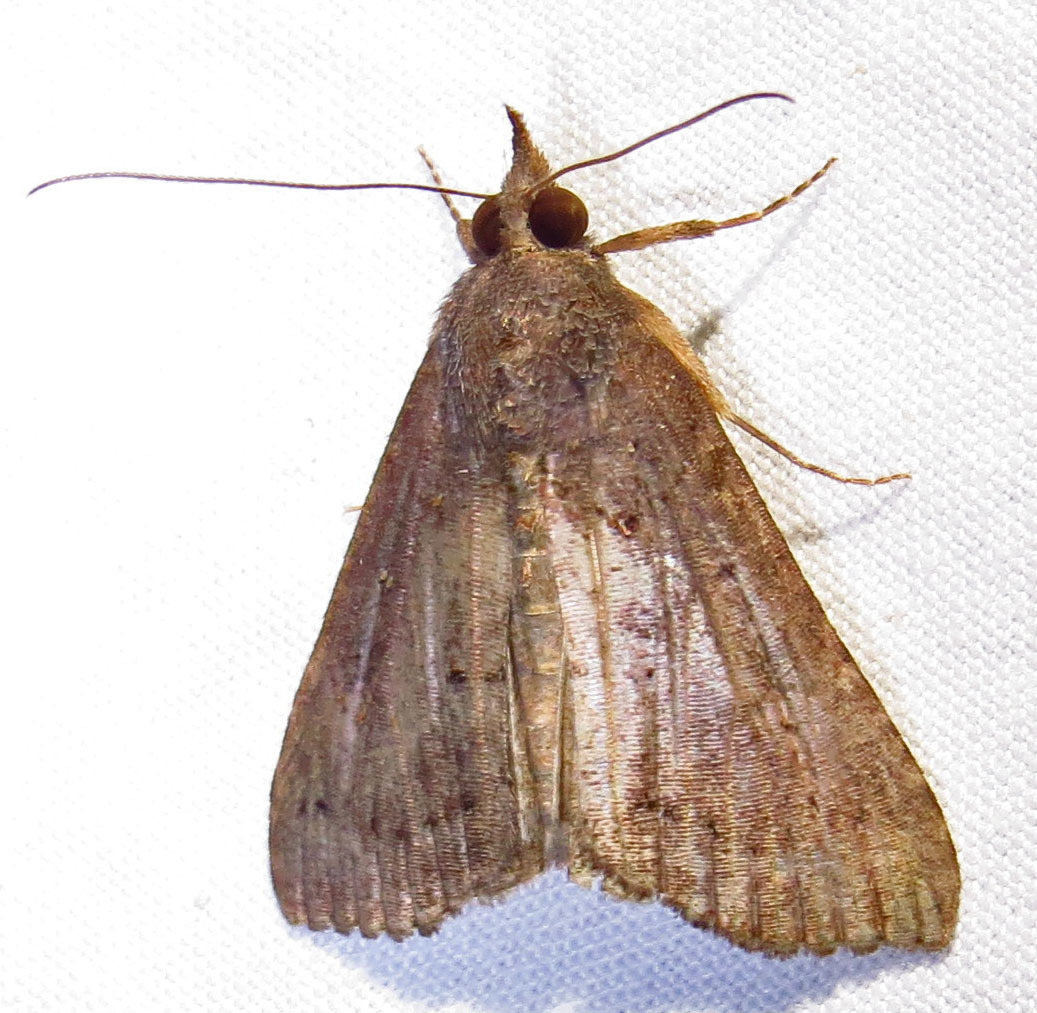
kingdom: Animalia
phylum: Arthropoda
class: Insecta
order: Lepidoptera
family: Erebidae
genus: Hypena
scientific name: Hypena scabra
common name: Green cloverworm
